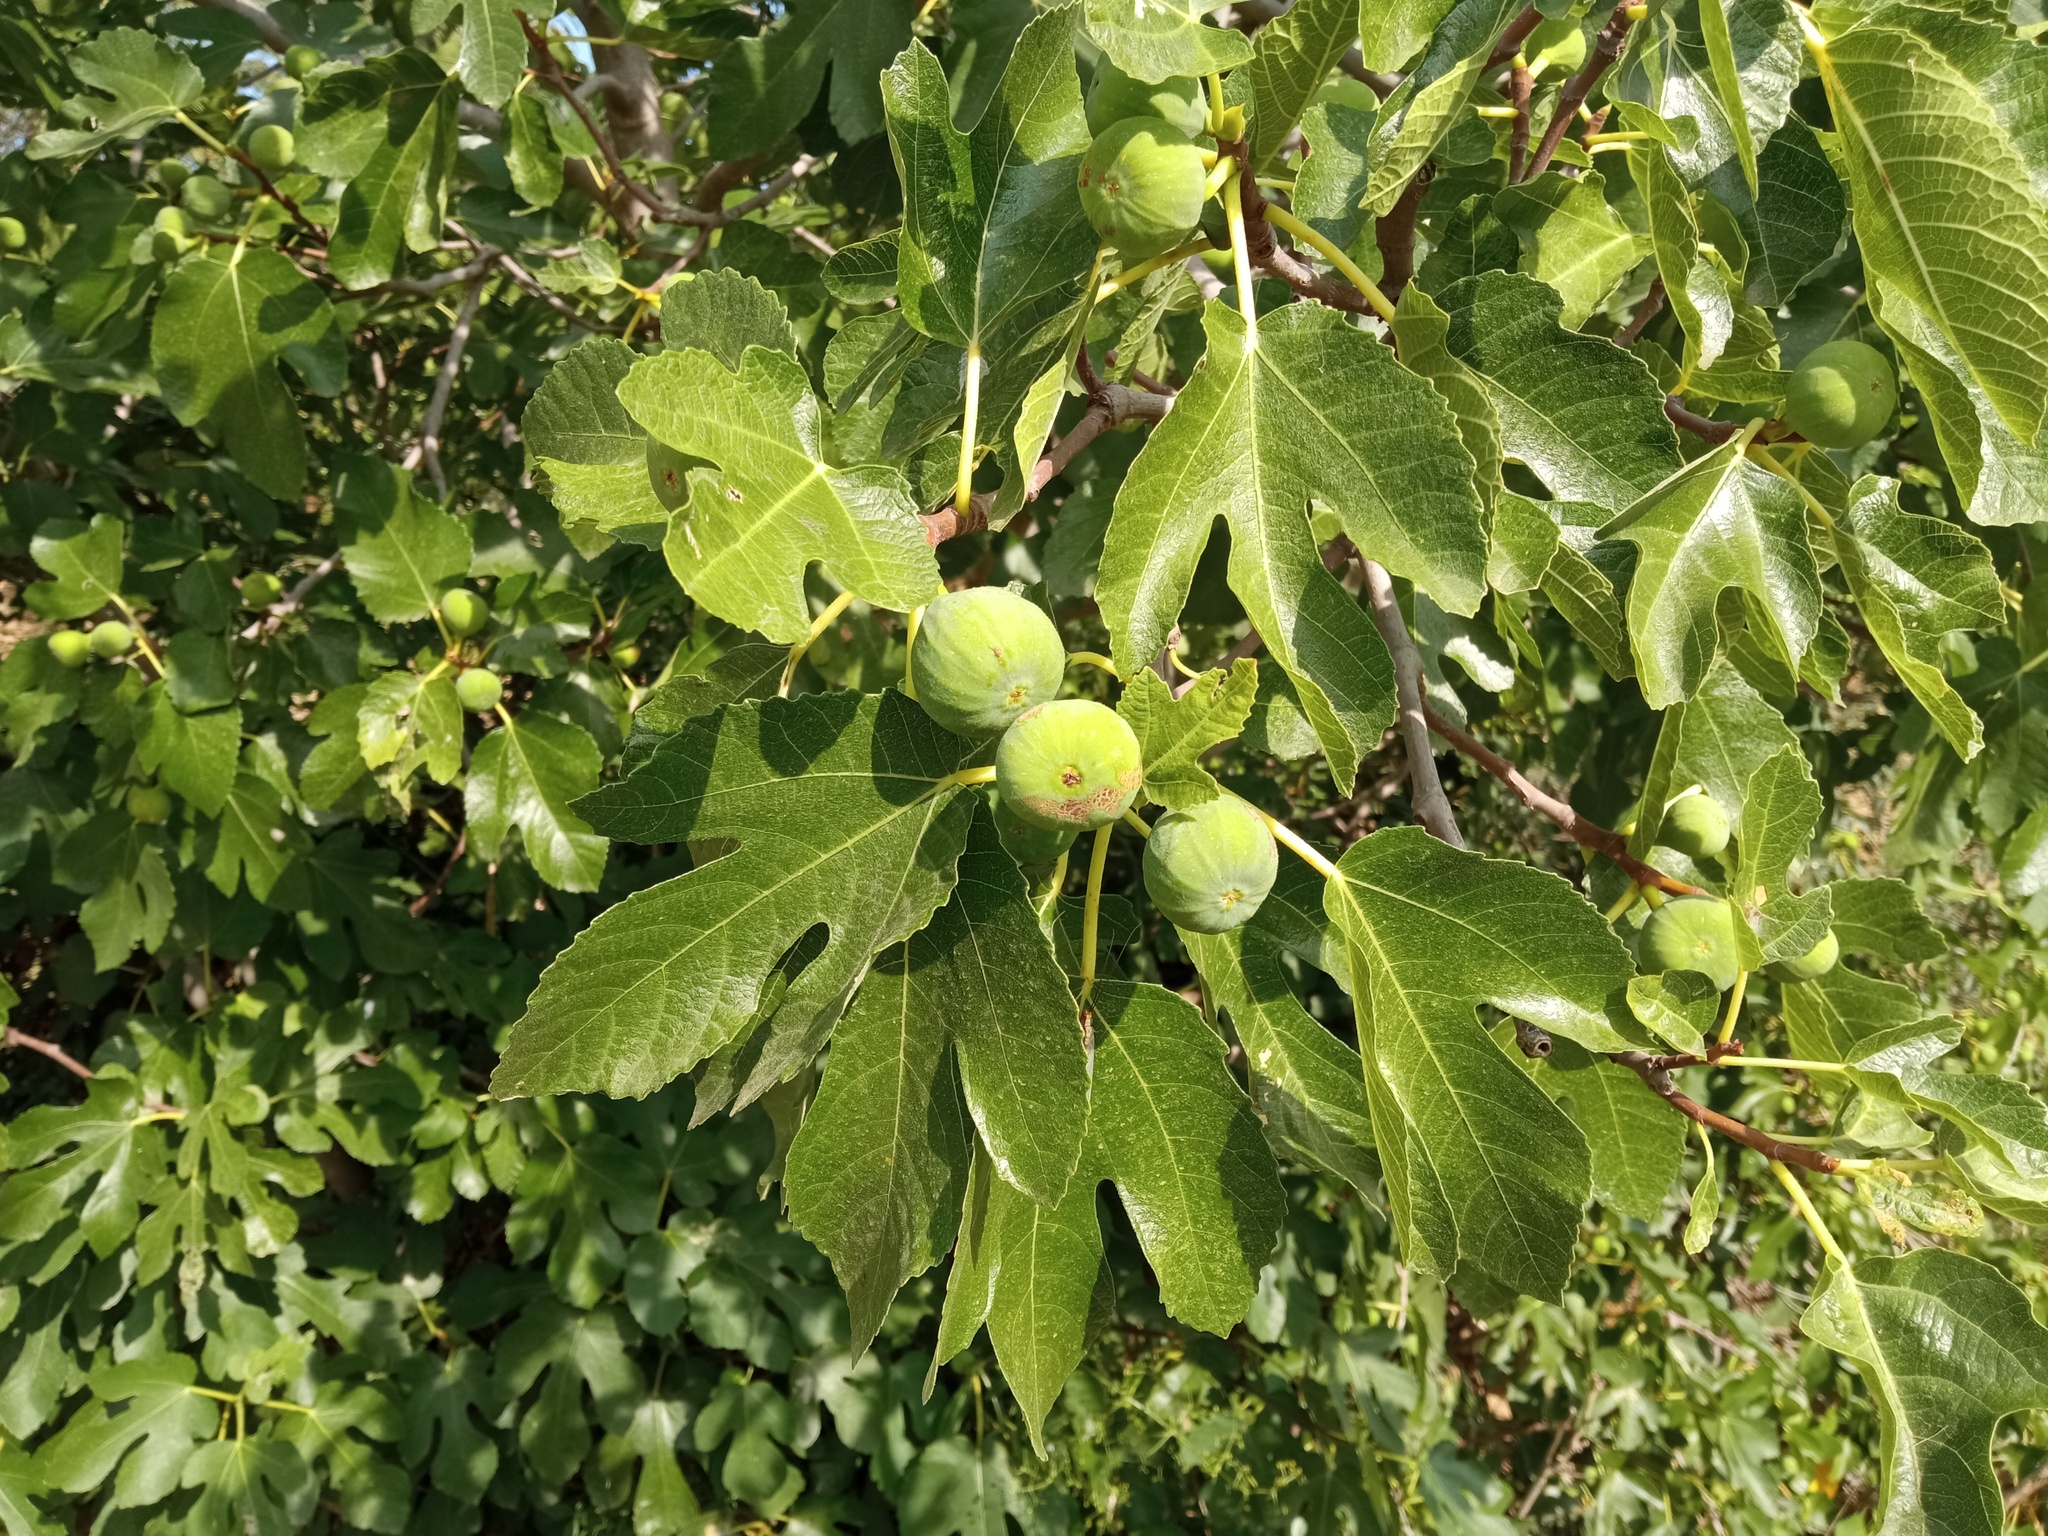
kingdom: Plantae
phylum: Tracheophyta
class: Magnoliopsida
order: Rosales
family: Moraceae
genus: Ficus
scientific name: Ficus carica
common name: Fig
